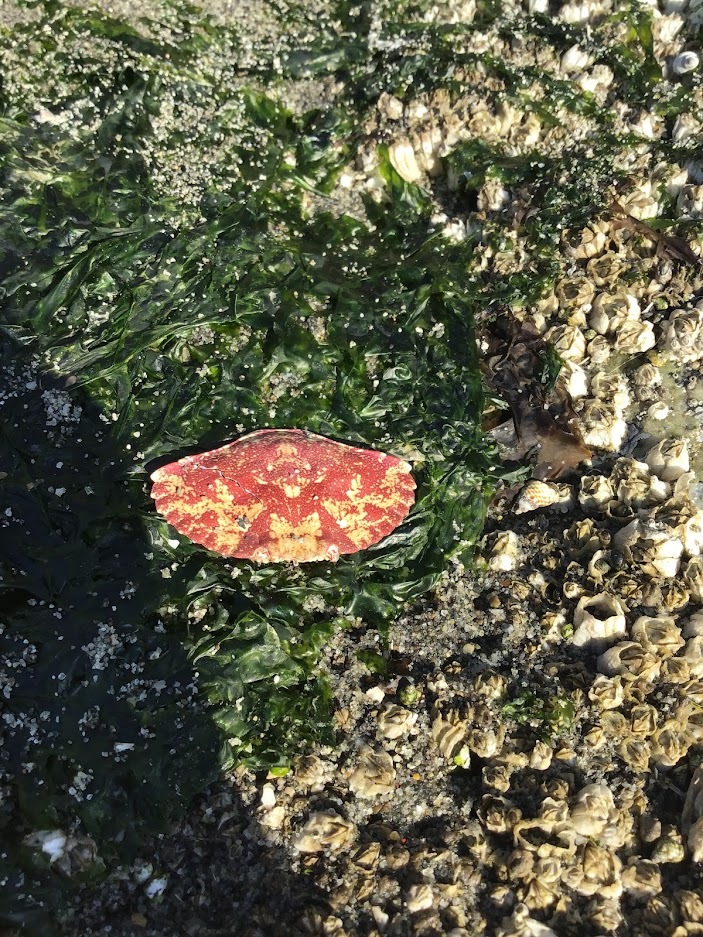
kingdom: Animalia
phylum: Arthropoda
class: Malacostraca
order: Decapoda
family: Cancridae
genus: Cancer
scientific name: Cancer productus
